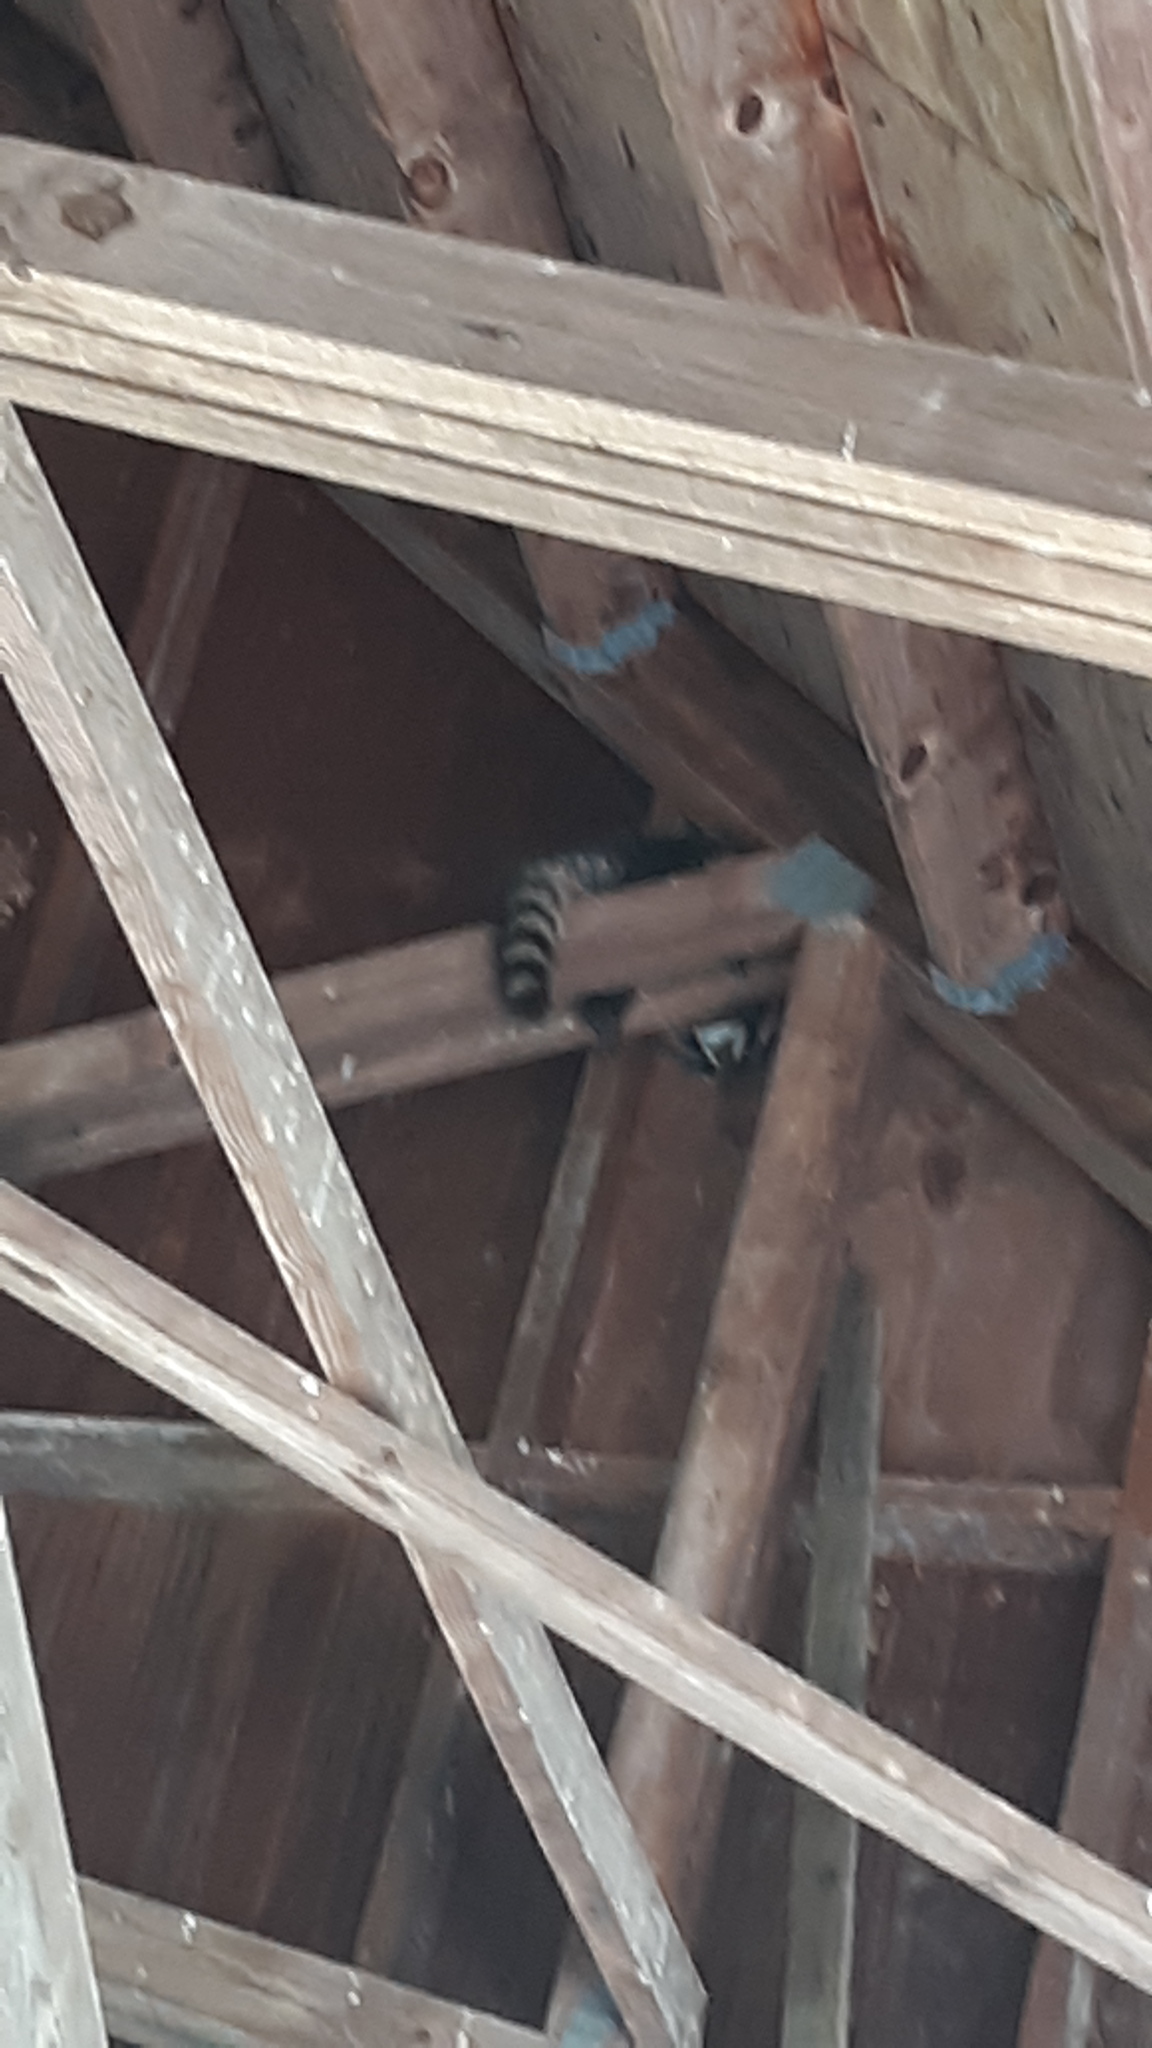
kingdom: Animalia
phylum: Chordata
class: Mammalia
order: Carnivora
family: Procyonidae
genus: Procyon
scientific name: Procyon lotor
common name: Raccoon
